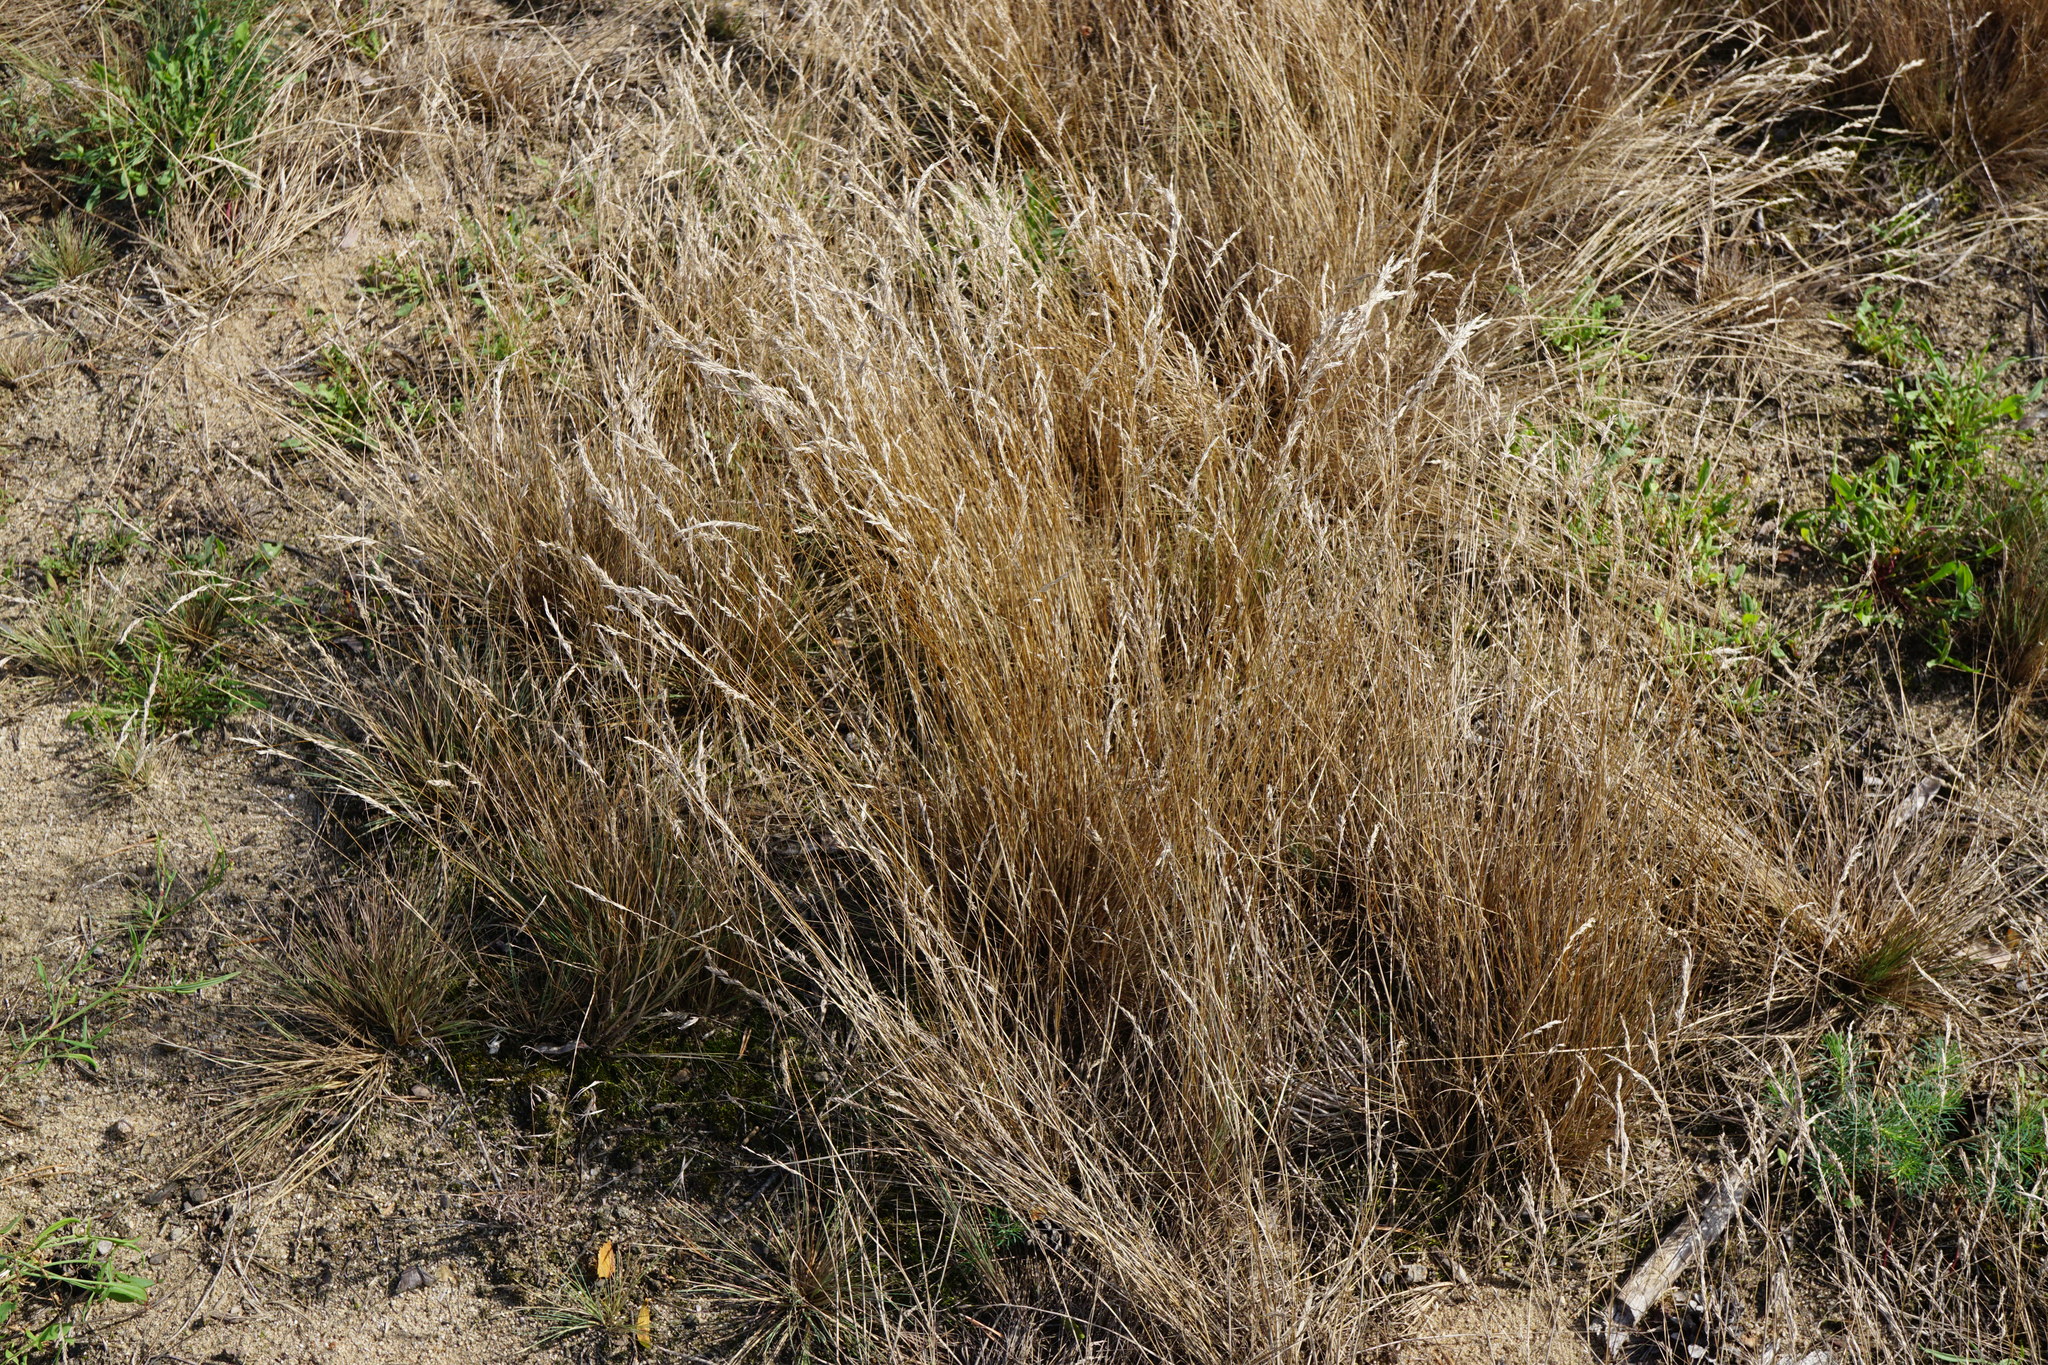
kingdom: Plantae
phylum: Tracheophyta
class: Liliopsida
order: Poales
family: Poaceae
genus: Corynephorus
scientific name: Corynephorus canescens
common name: Grey hair-grass
